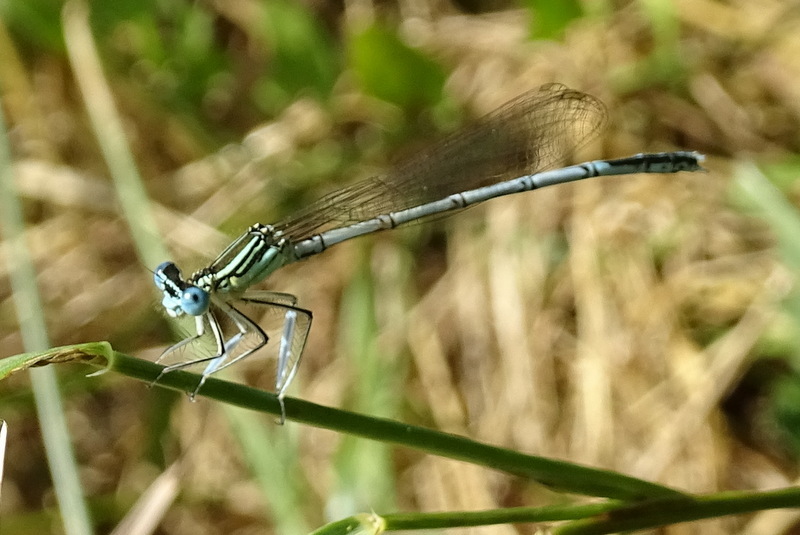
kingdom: Animalia
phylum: Arthropoda
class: Insecta
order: Odonata
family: Platycnemididae
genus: Platycnemis
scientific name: Platycnemis pennipes
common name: White-legged damselfly
